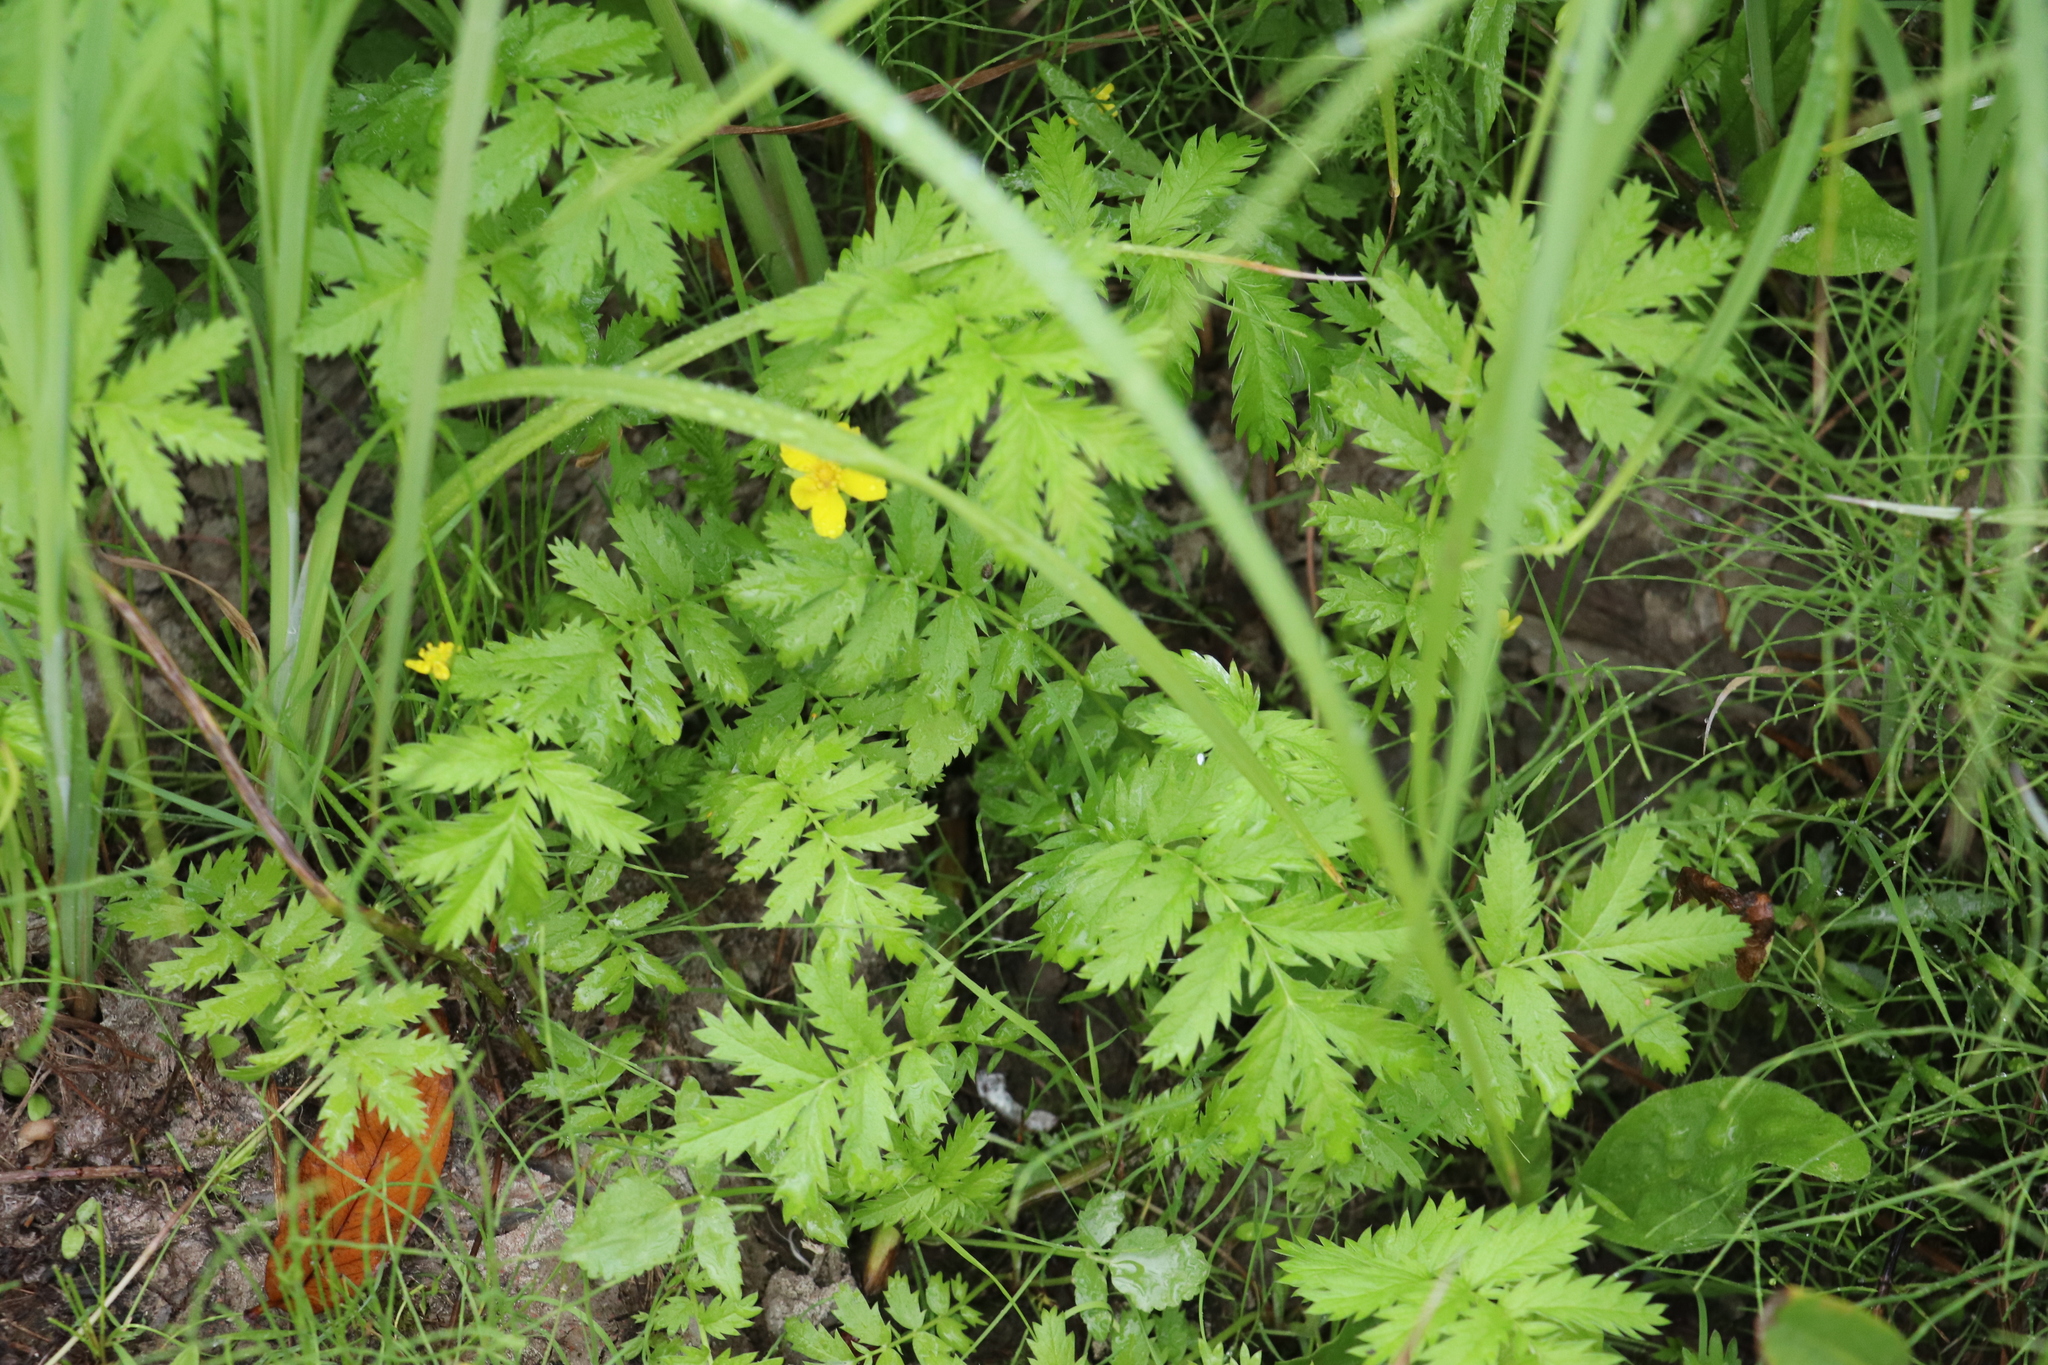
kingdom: Plantae
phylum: Tracheophyta
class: Magnoliopsida
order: Rosales
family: Rosaceae
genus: Argentina
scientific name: Argentina anserina
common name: Common silverweed
